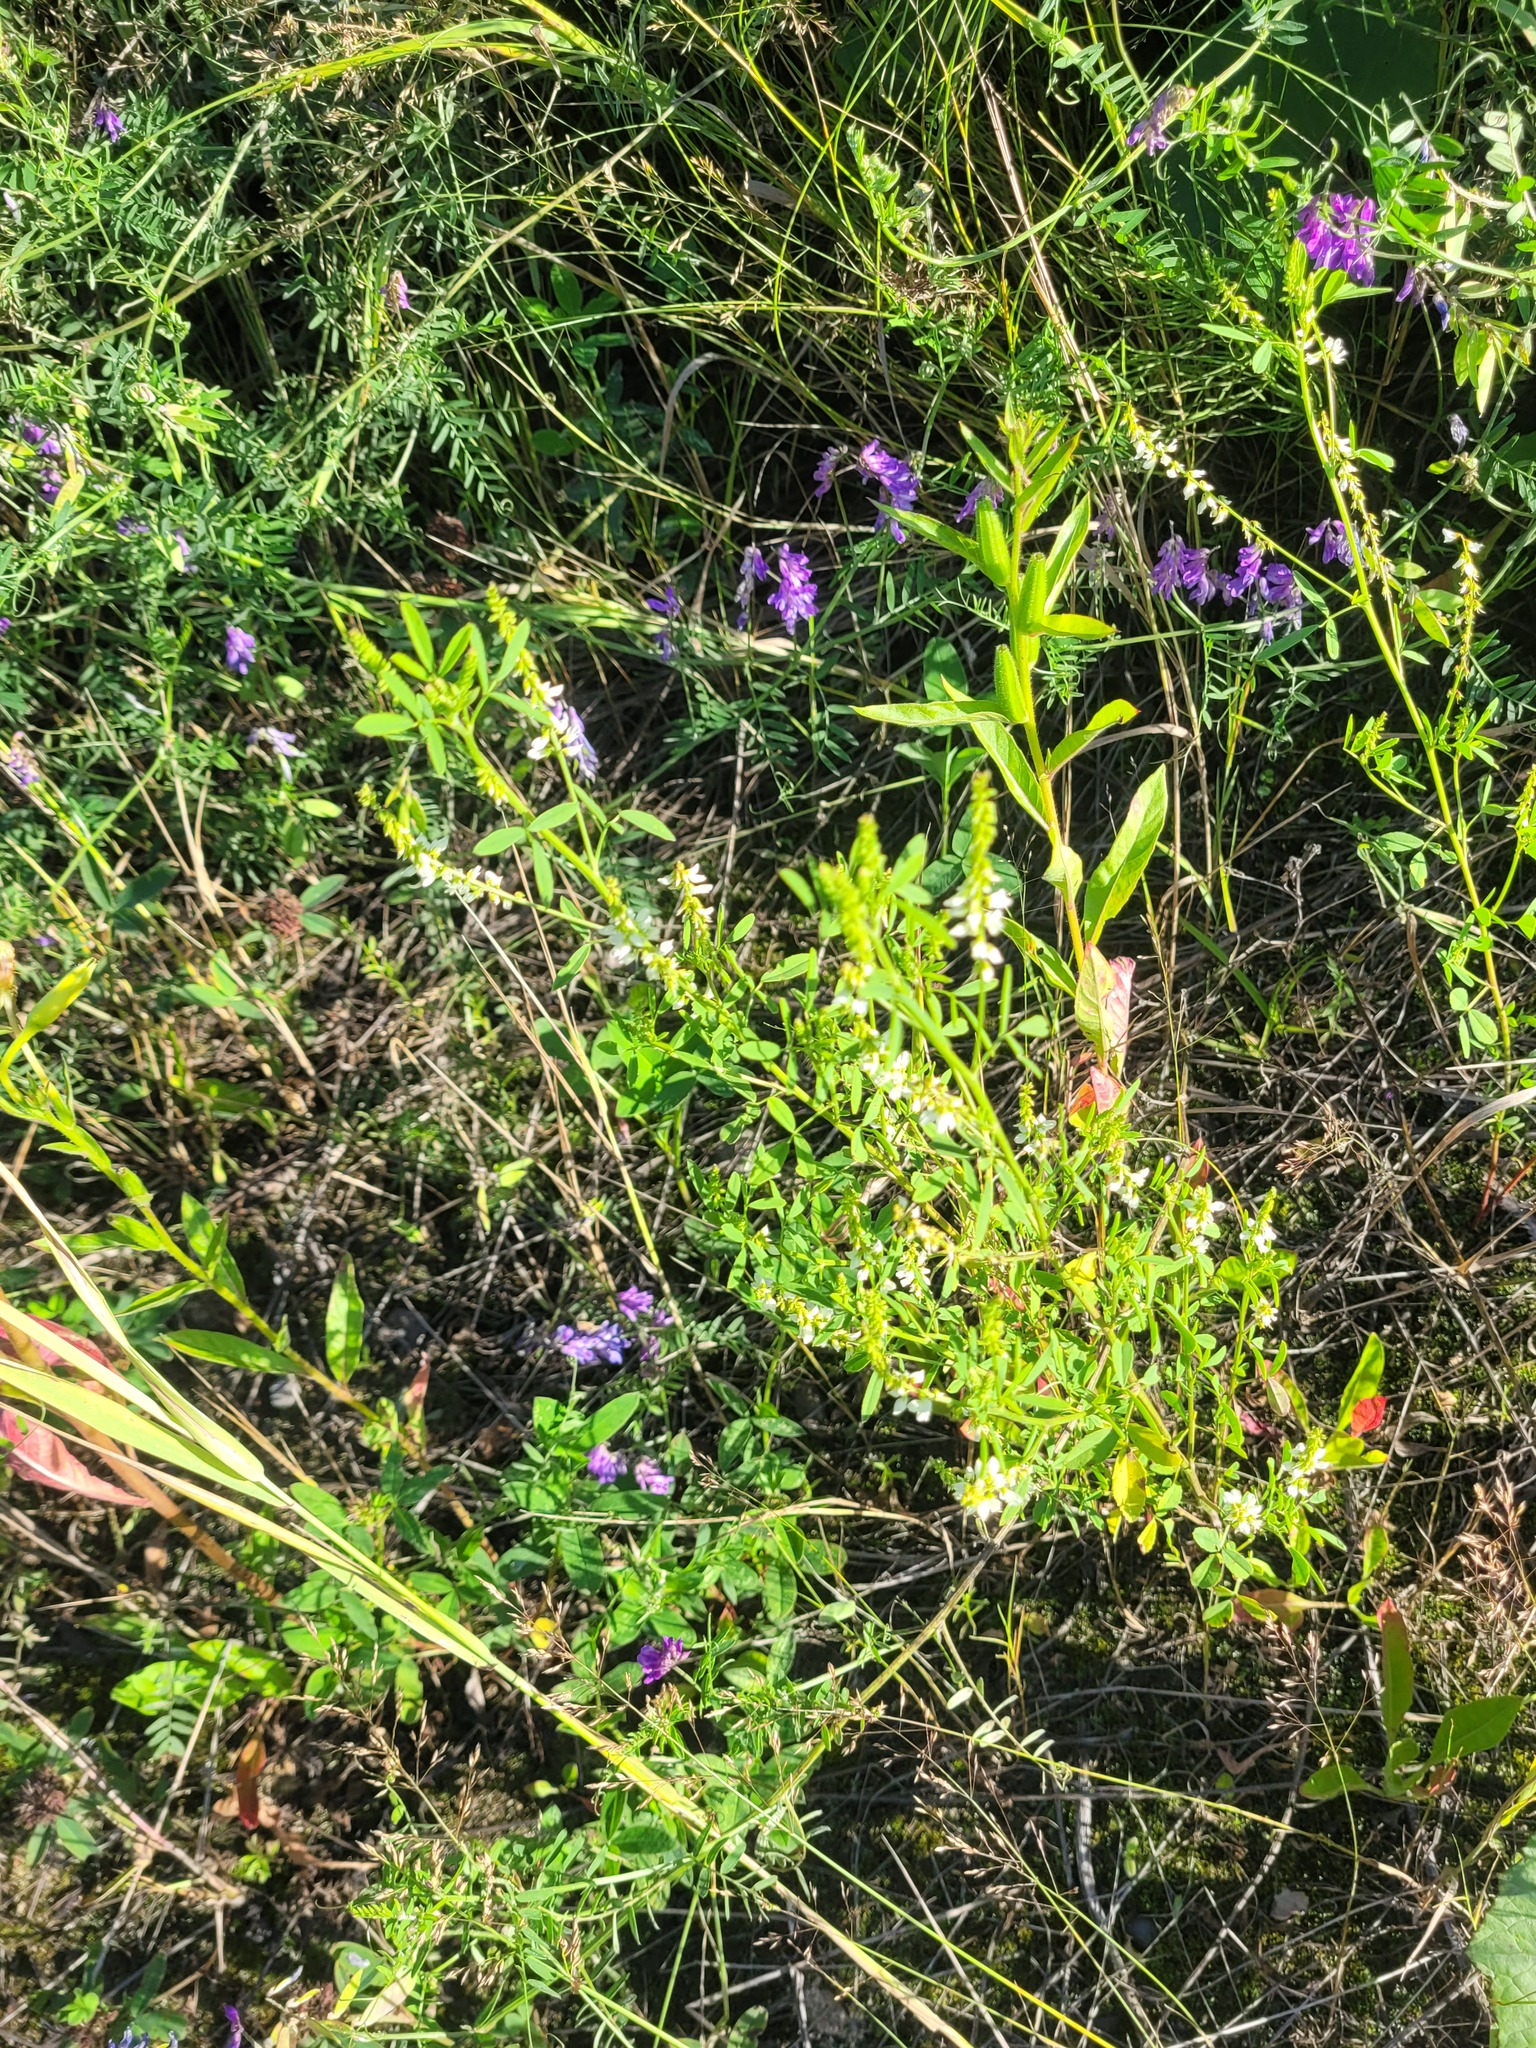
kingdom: Plantae
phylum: Tracheophyta
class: Magnoliopsida
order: Fabales
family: Fabaceae
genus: Melilotus
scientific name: Melilotus albus
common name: White melilot
